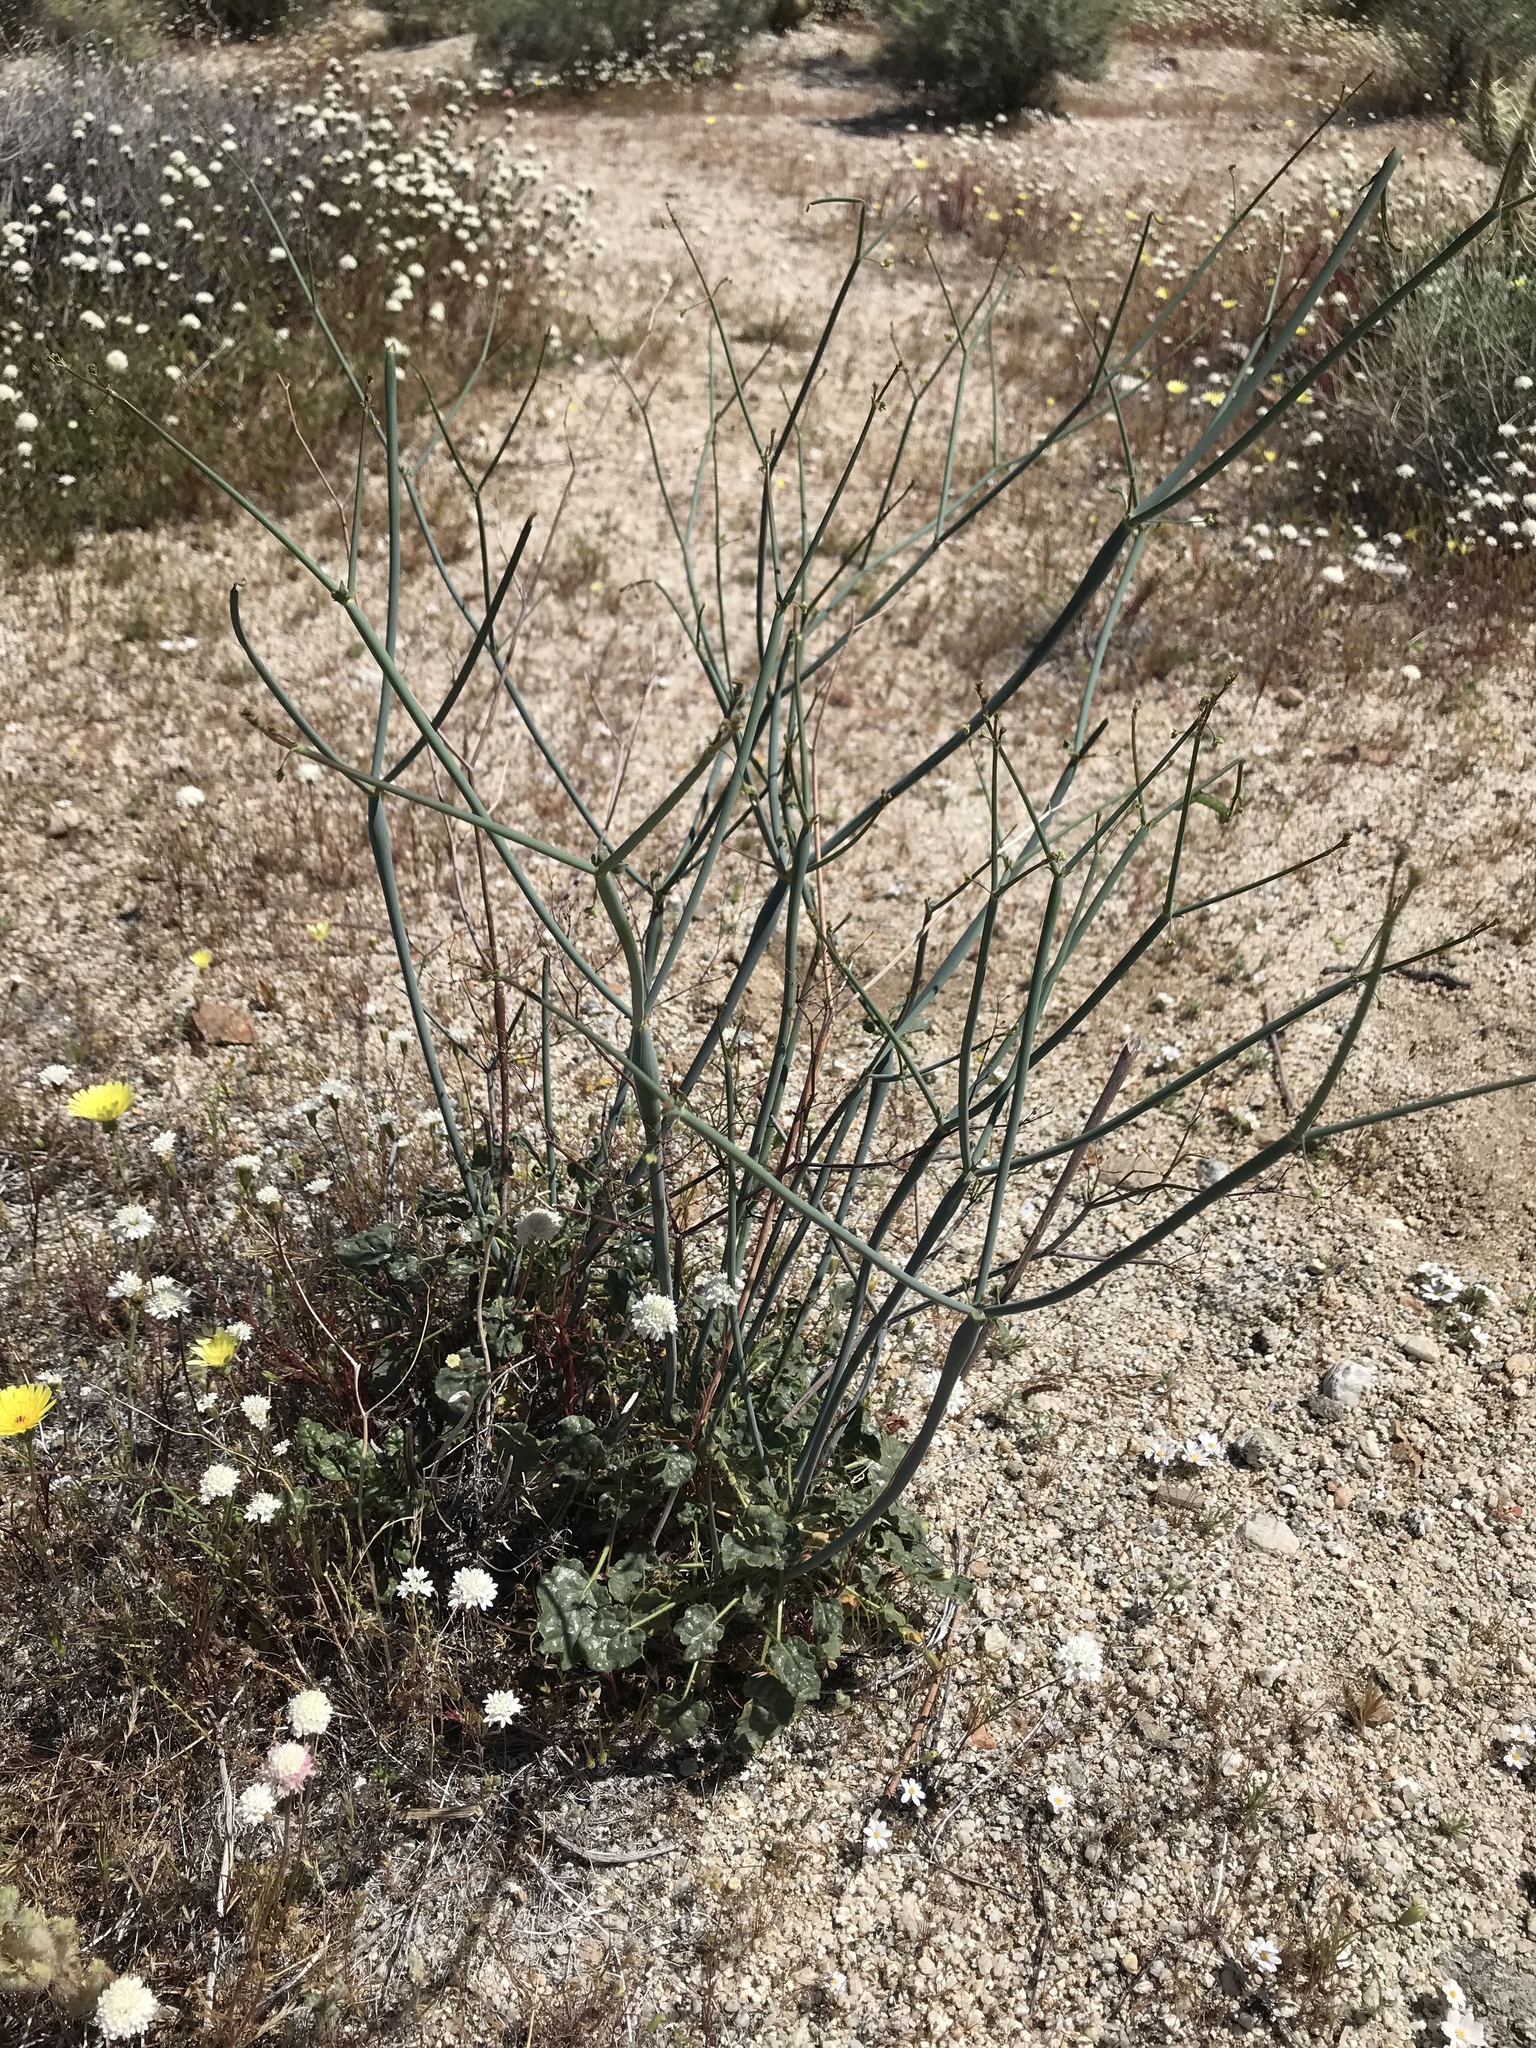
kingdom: Plantae
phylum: Tracheophyta
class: Magnoliopsida
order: Caryophyllales
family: Polygonaceae
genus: Eriogonum
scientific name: Eriogonum inflatum
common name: Desert trumpet
